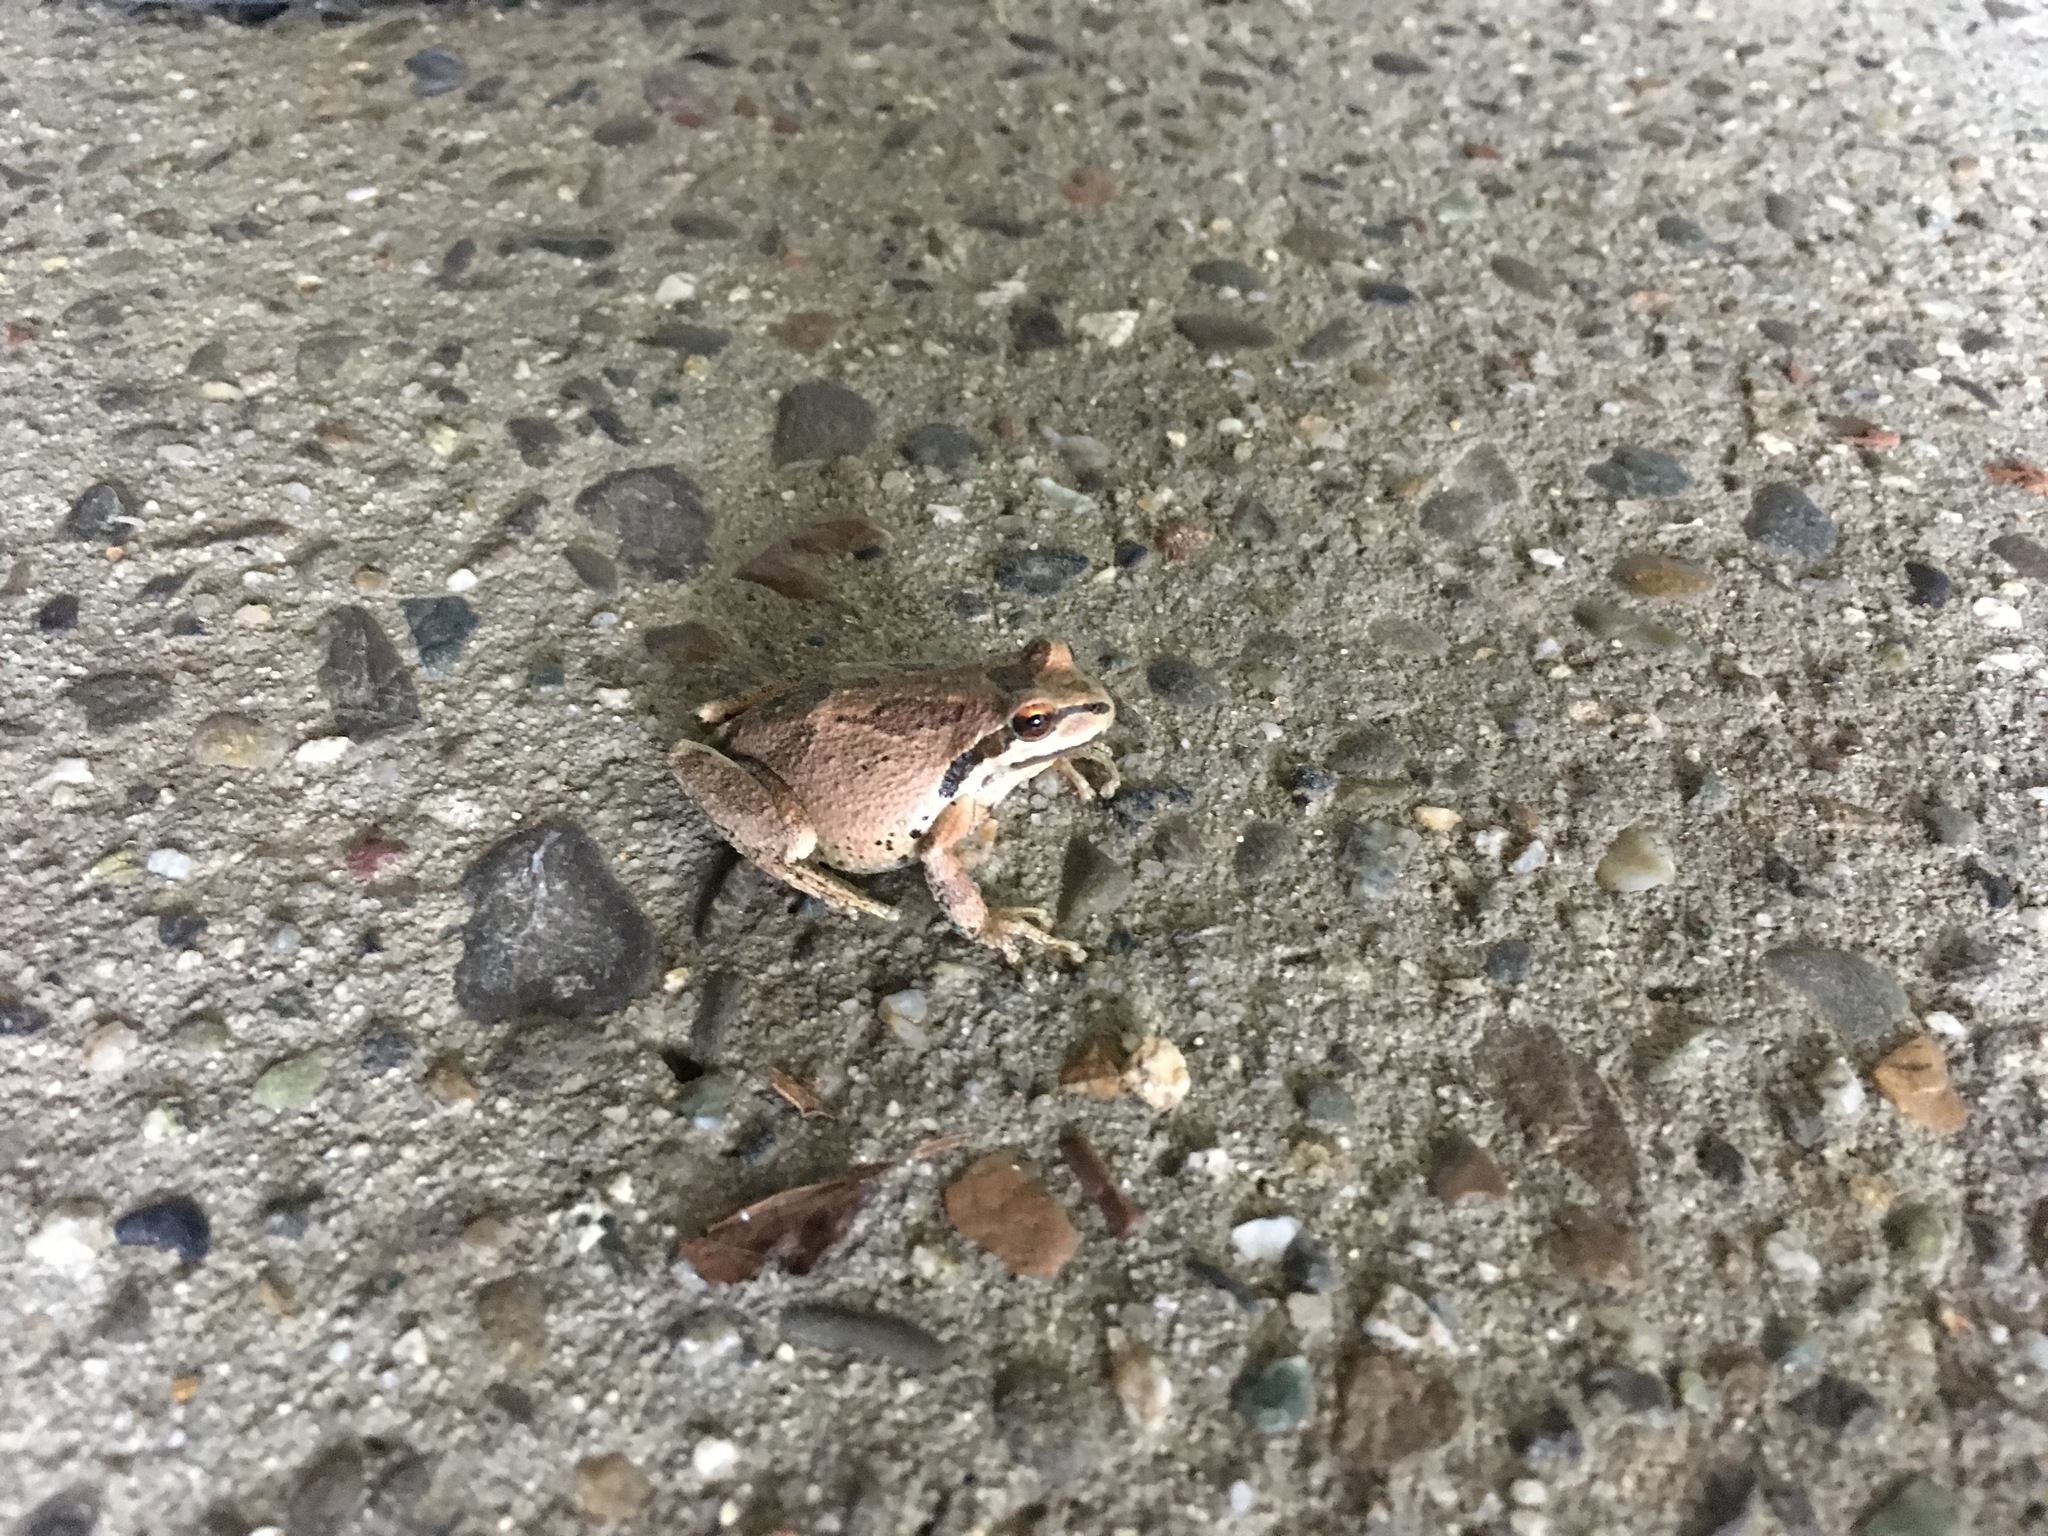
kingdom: Animalia
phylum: Chordata
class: Amphibia
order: Anura
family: Hylidae
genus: Pseudacris
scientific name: Pseudacris regilla
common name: Pacific chorus frog
